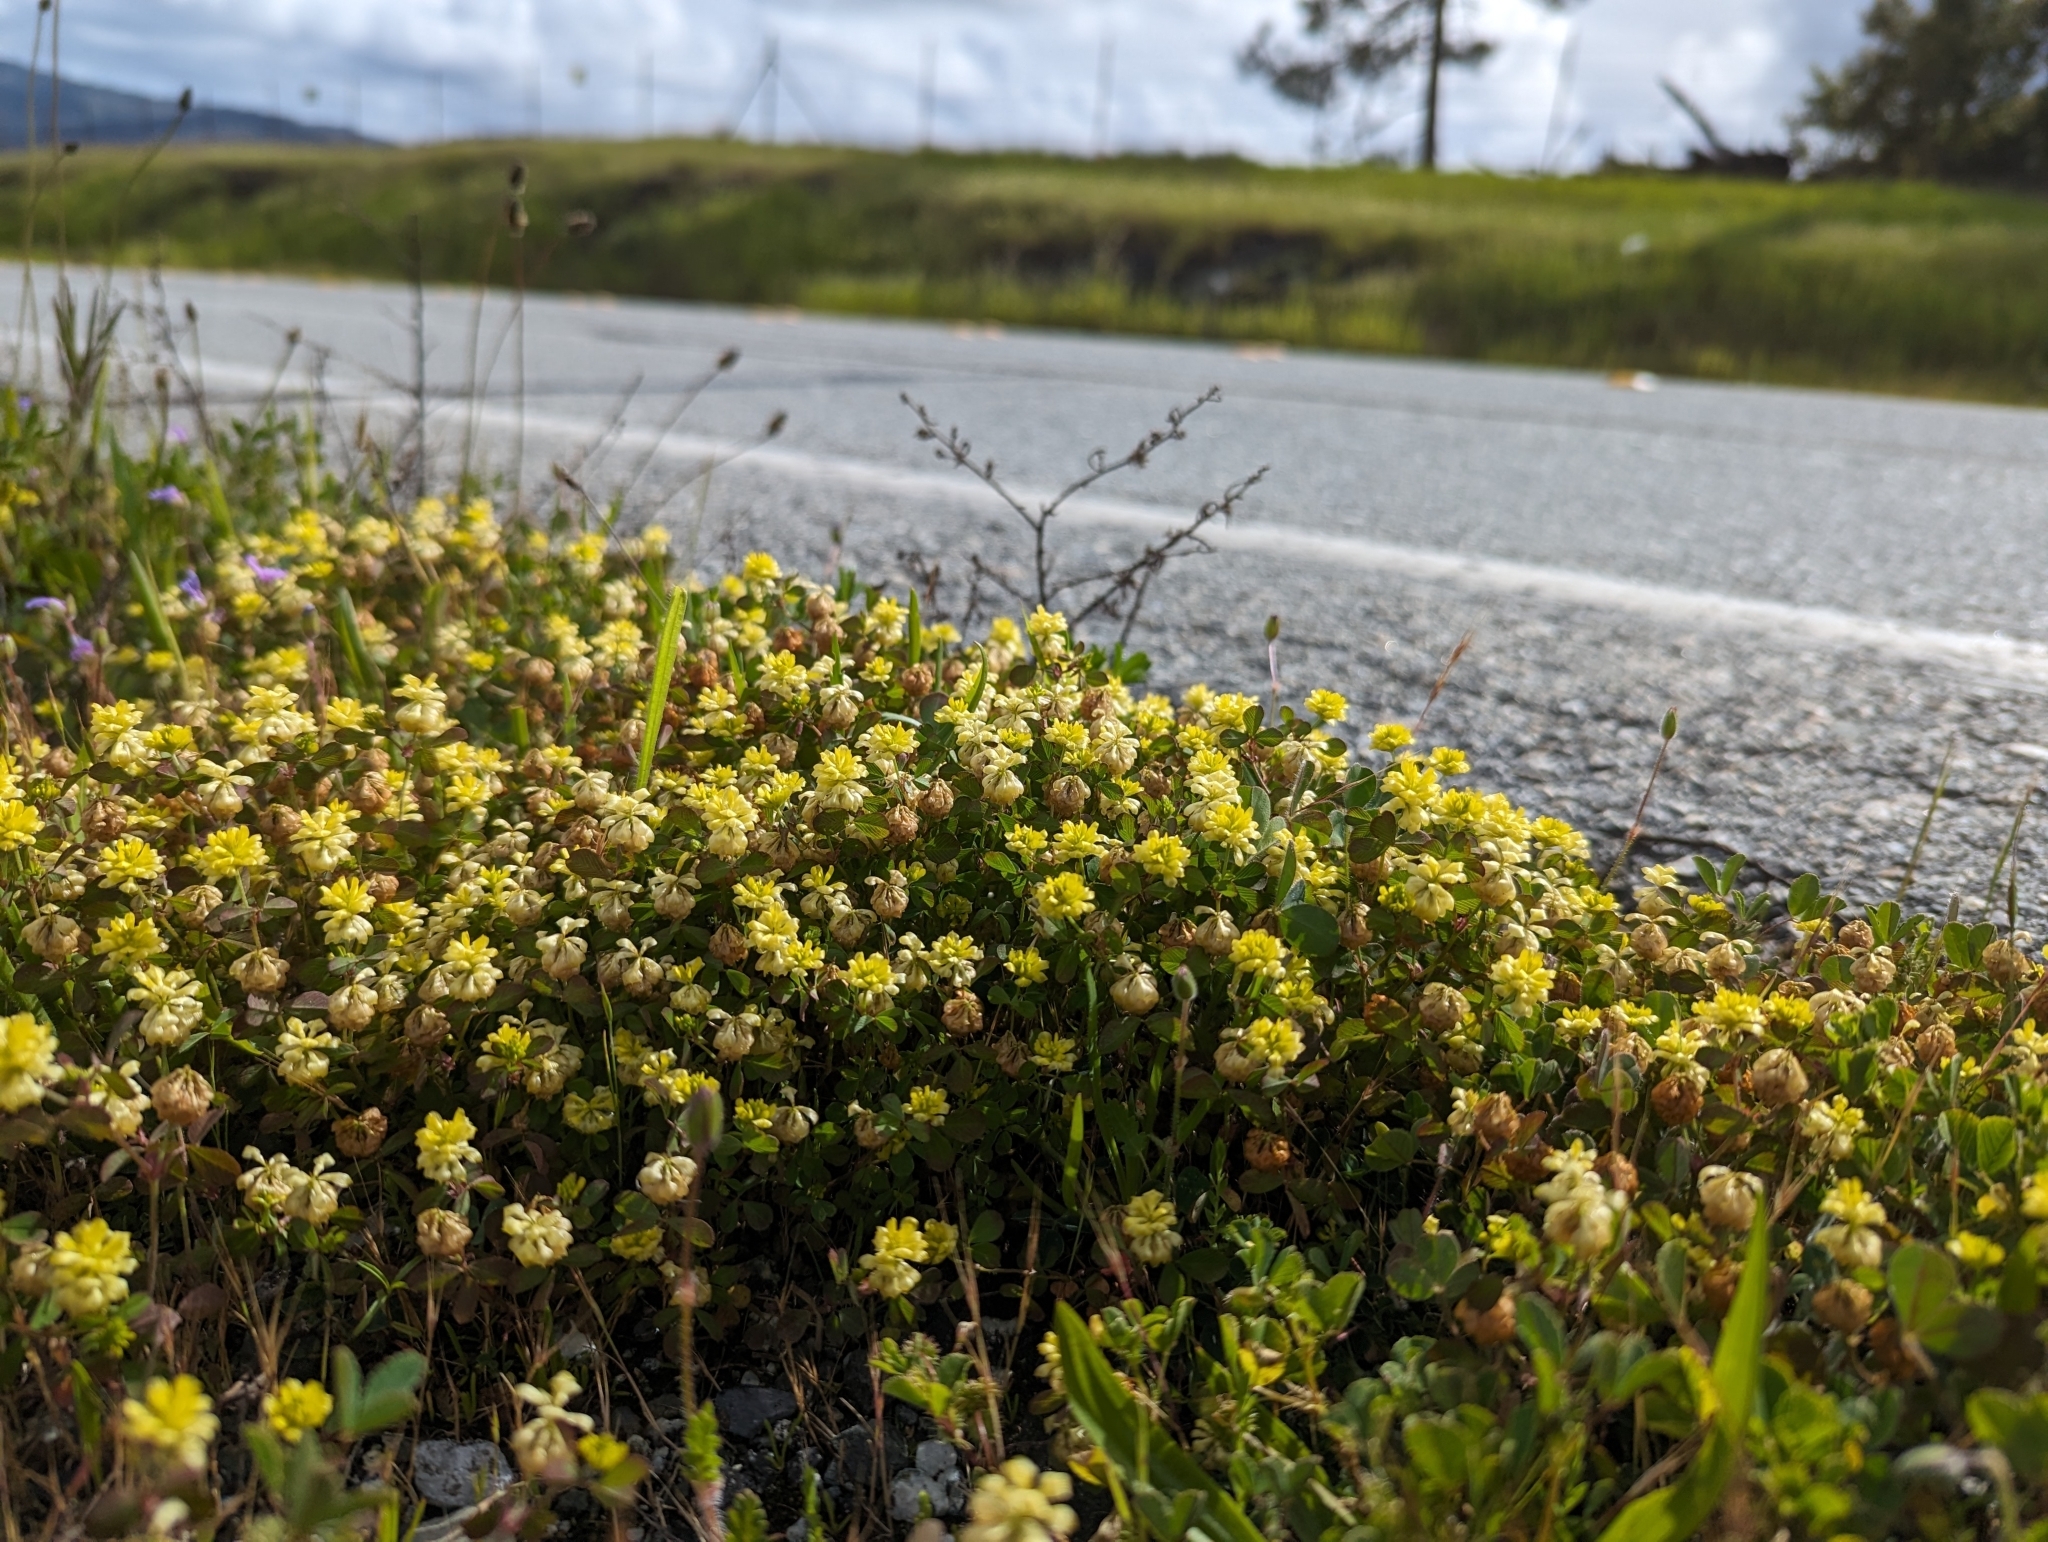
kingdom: Plantae
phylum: Tracheophyta
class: Magnoliopsida
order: Fabales
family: Fabaceae
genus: Trifolium
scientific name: Trifolium campestre
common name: Field clover
